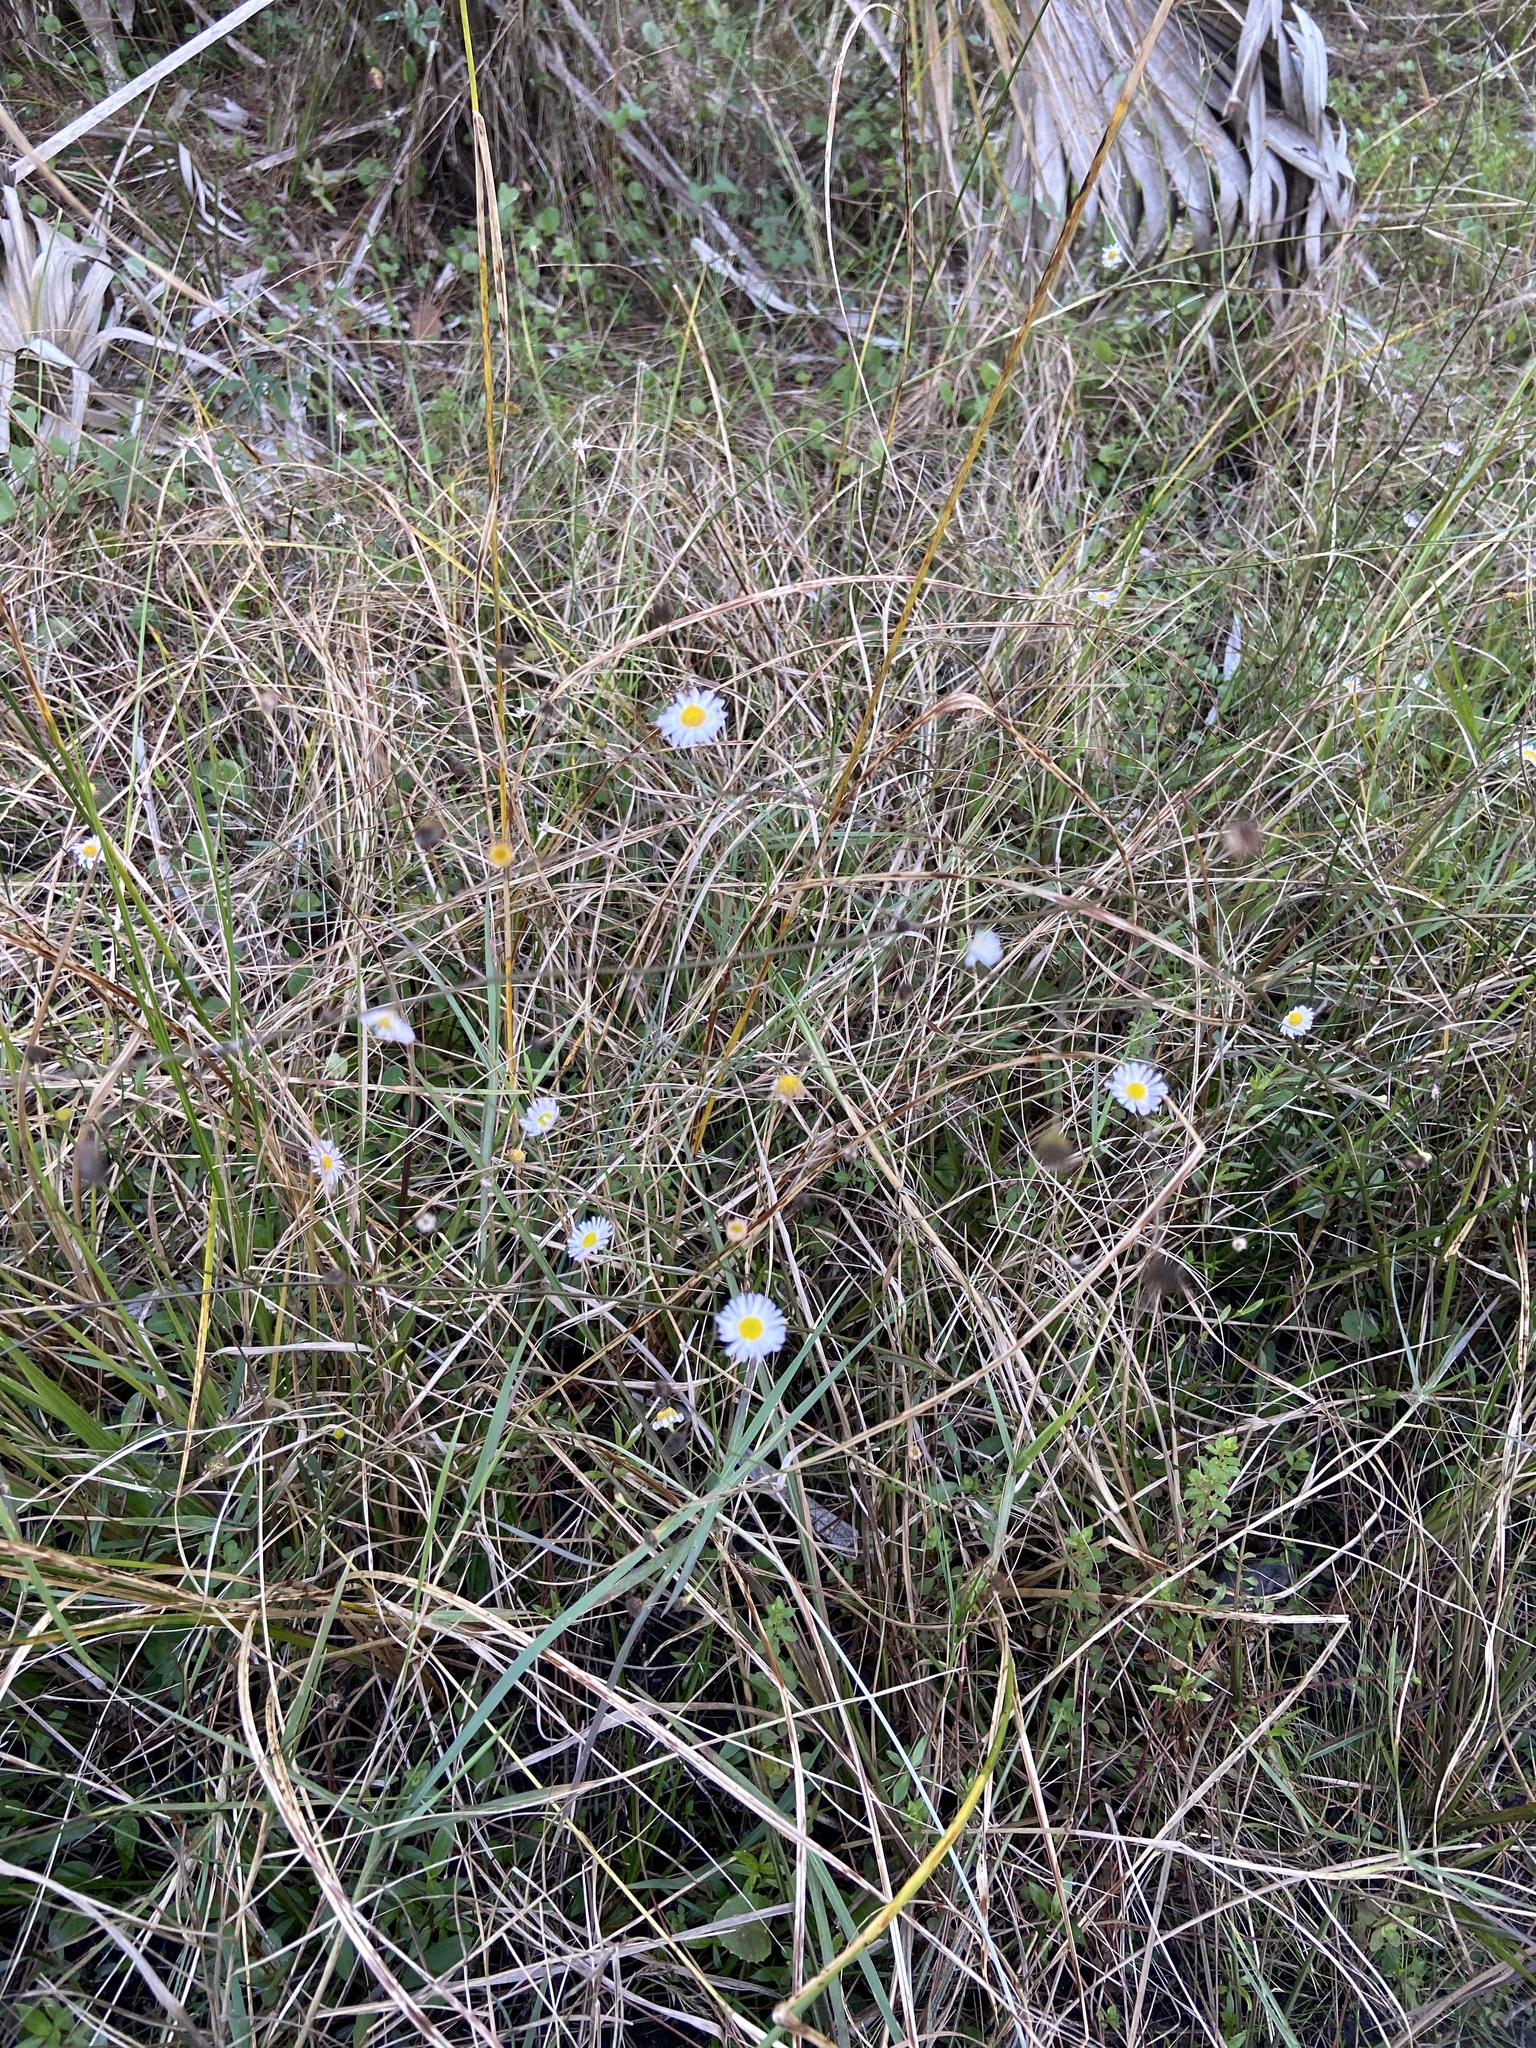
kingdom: Plantae
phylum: Tracheophyta
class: Magnoliopsida
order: Asterales
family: Asteraceae
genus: Boltonia
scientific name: Boltonia diffusa
